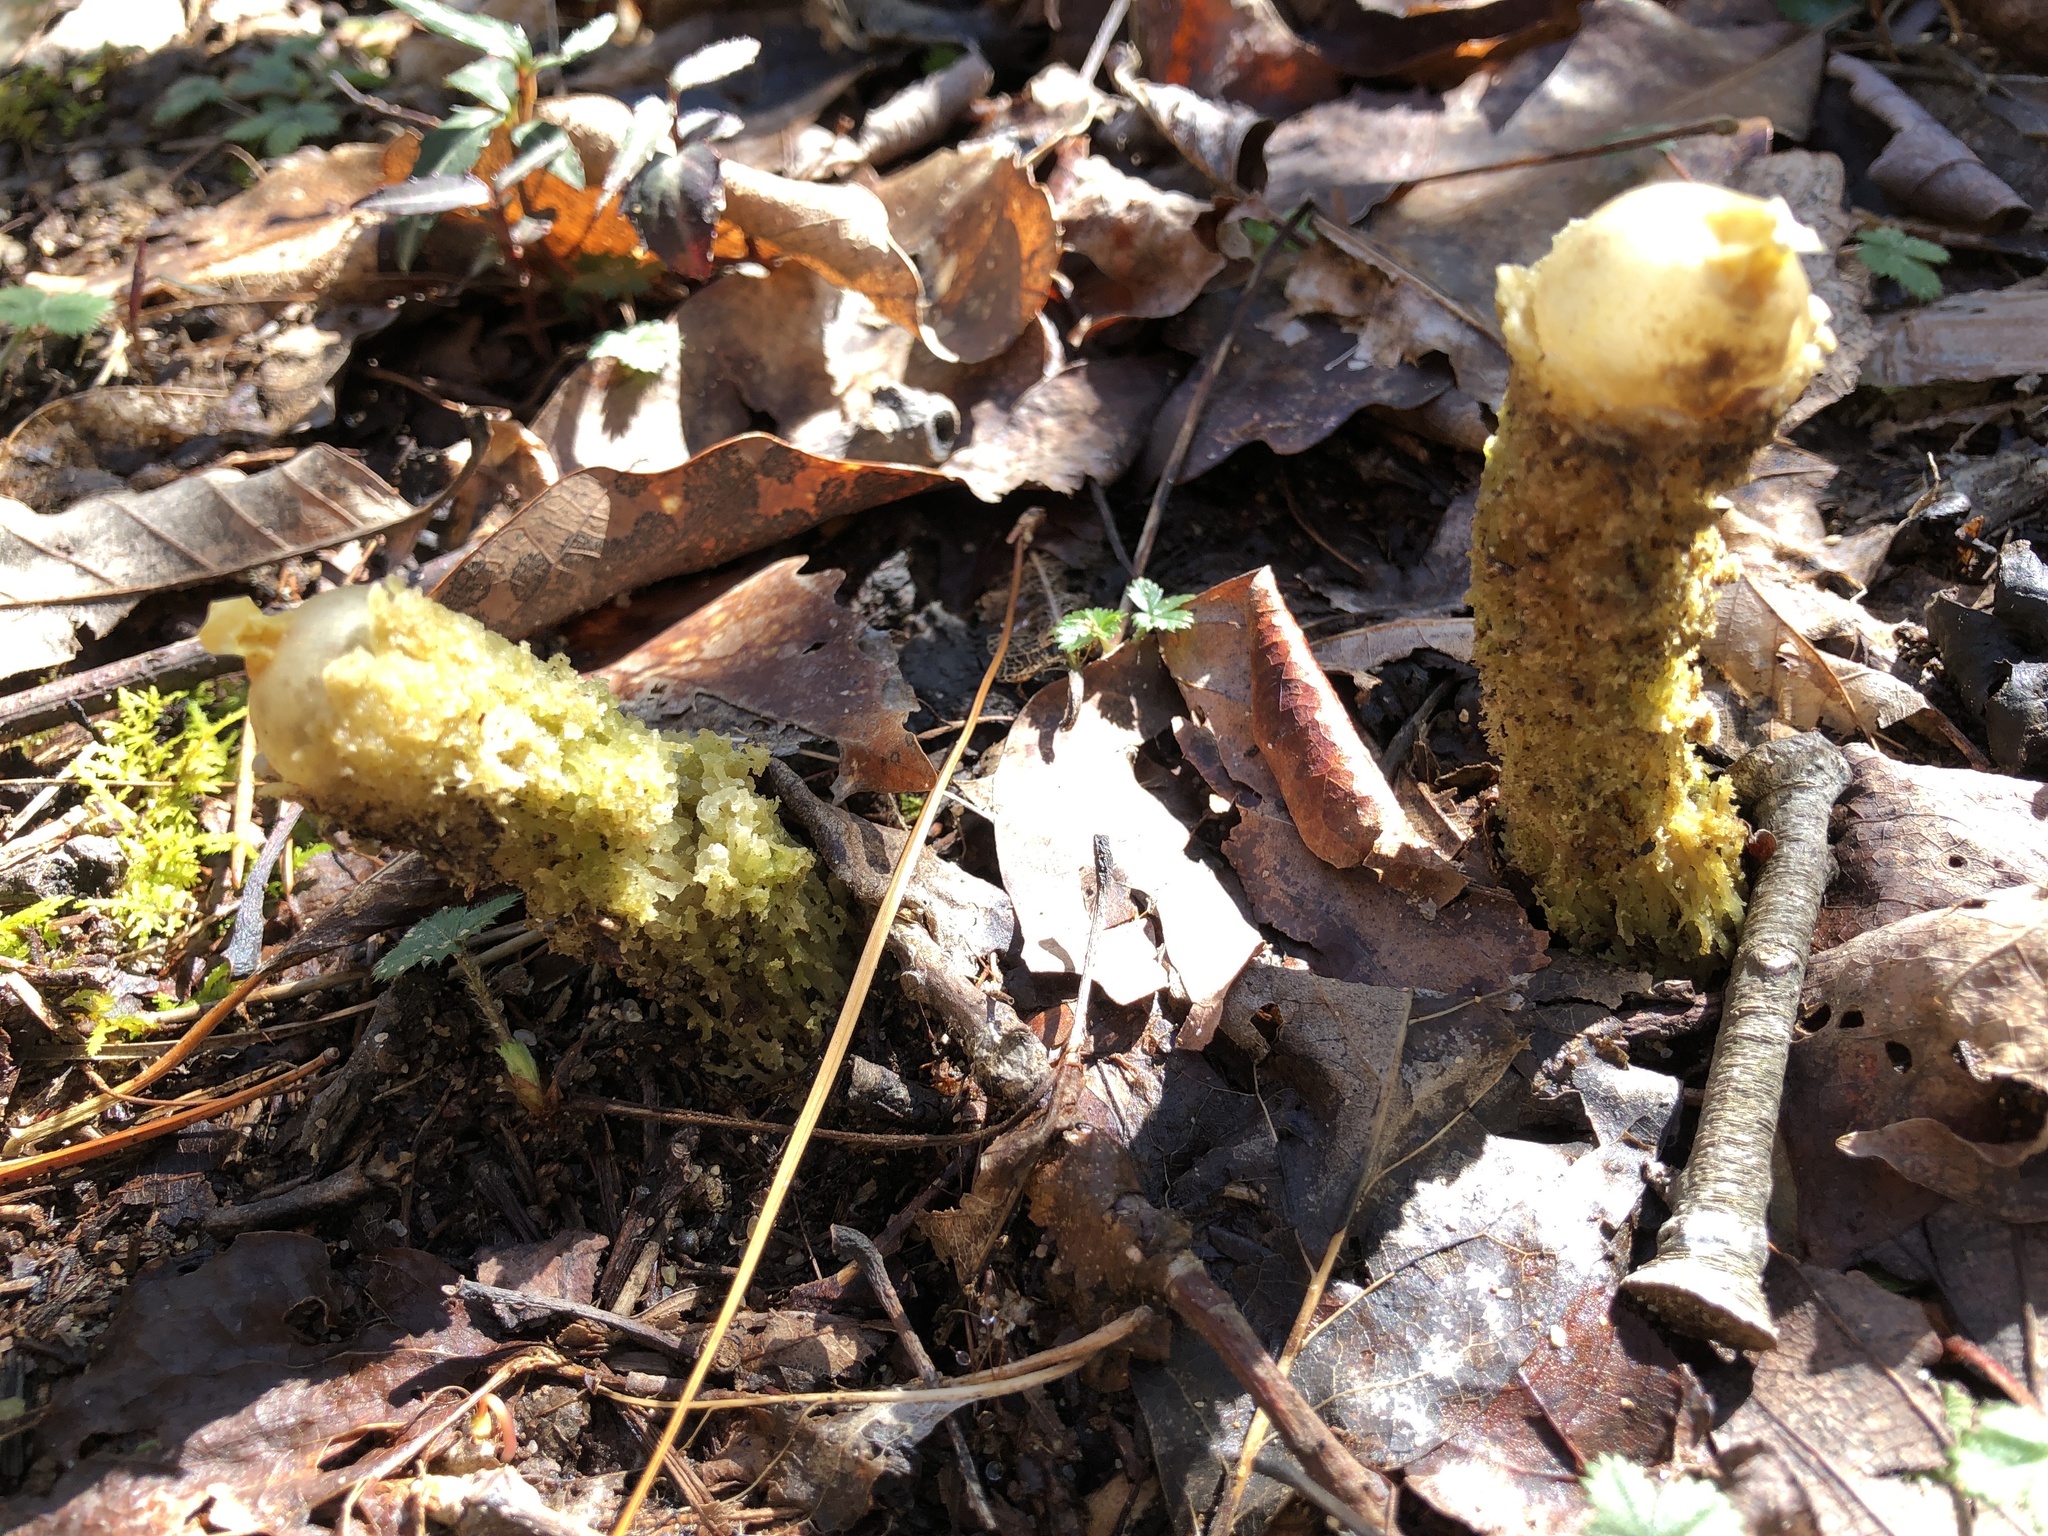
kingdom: Fungi
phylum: Basidiomycota
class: Agaricomycetes
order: Boletales
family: Calostomataceae
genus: Calostoma
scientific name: Calostoma lutescens
